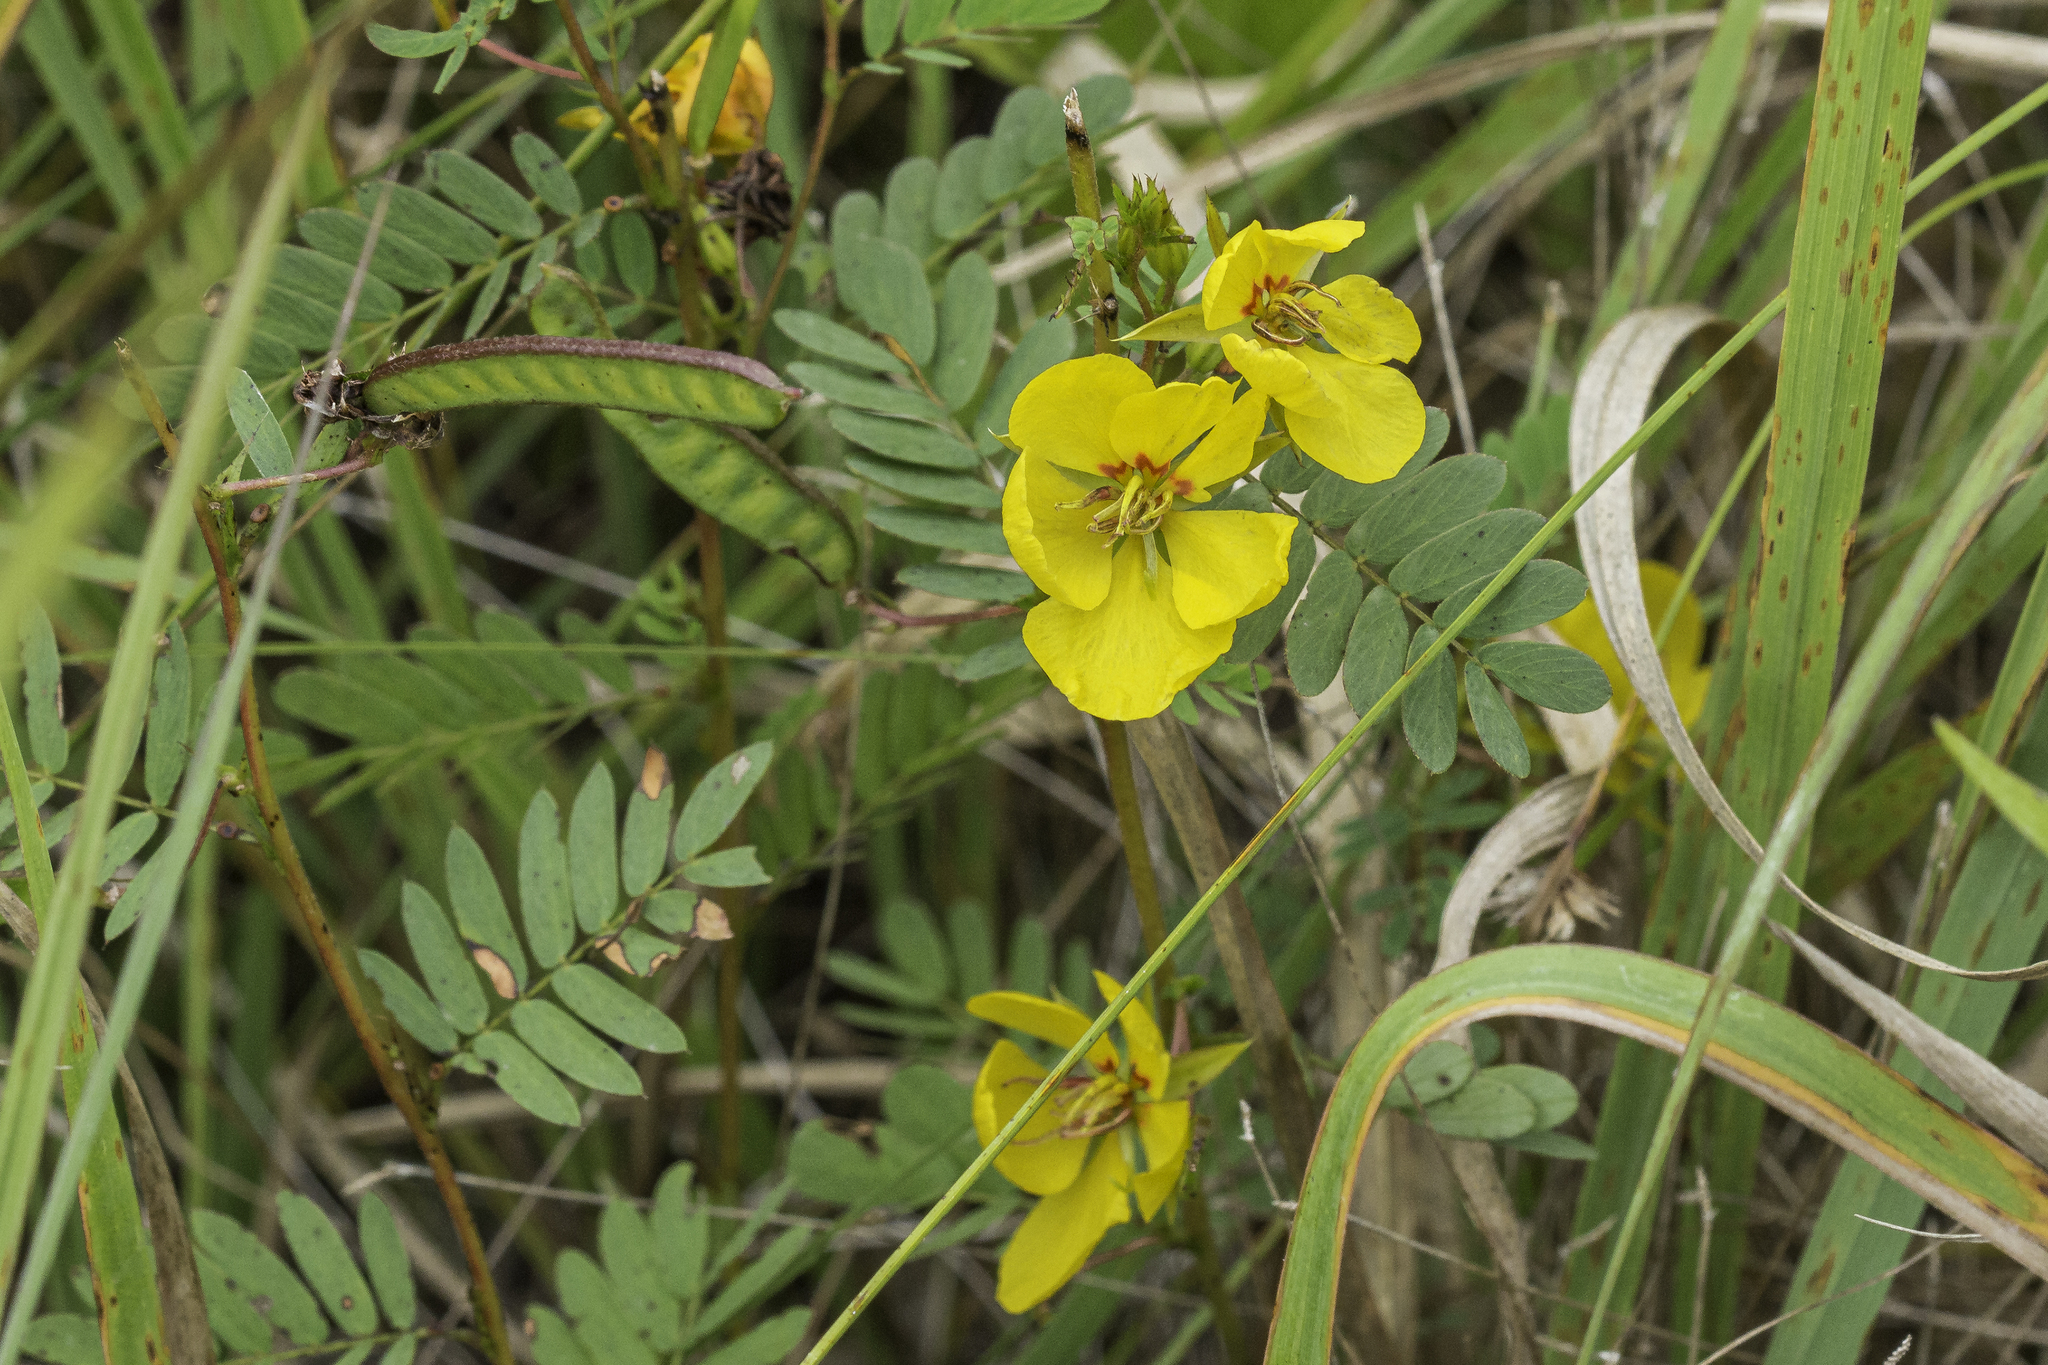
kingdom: Plantae
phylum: Tracheophyta
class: Magnoliopsida
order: Fabales
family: Fabaceae
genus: Chamaecrista
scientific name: Chamaecrista fasciculata
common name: Golden cassia
